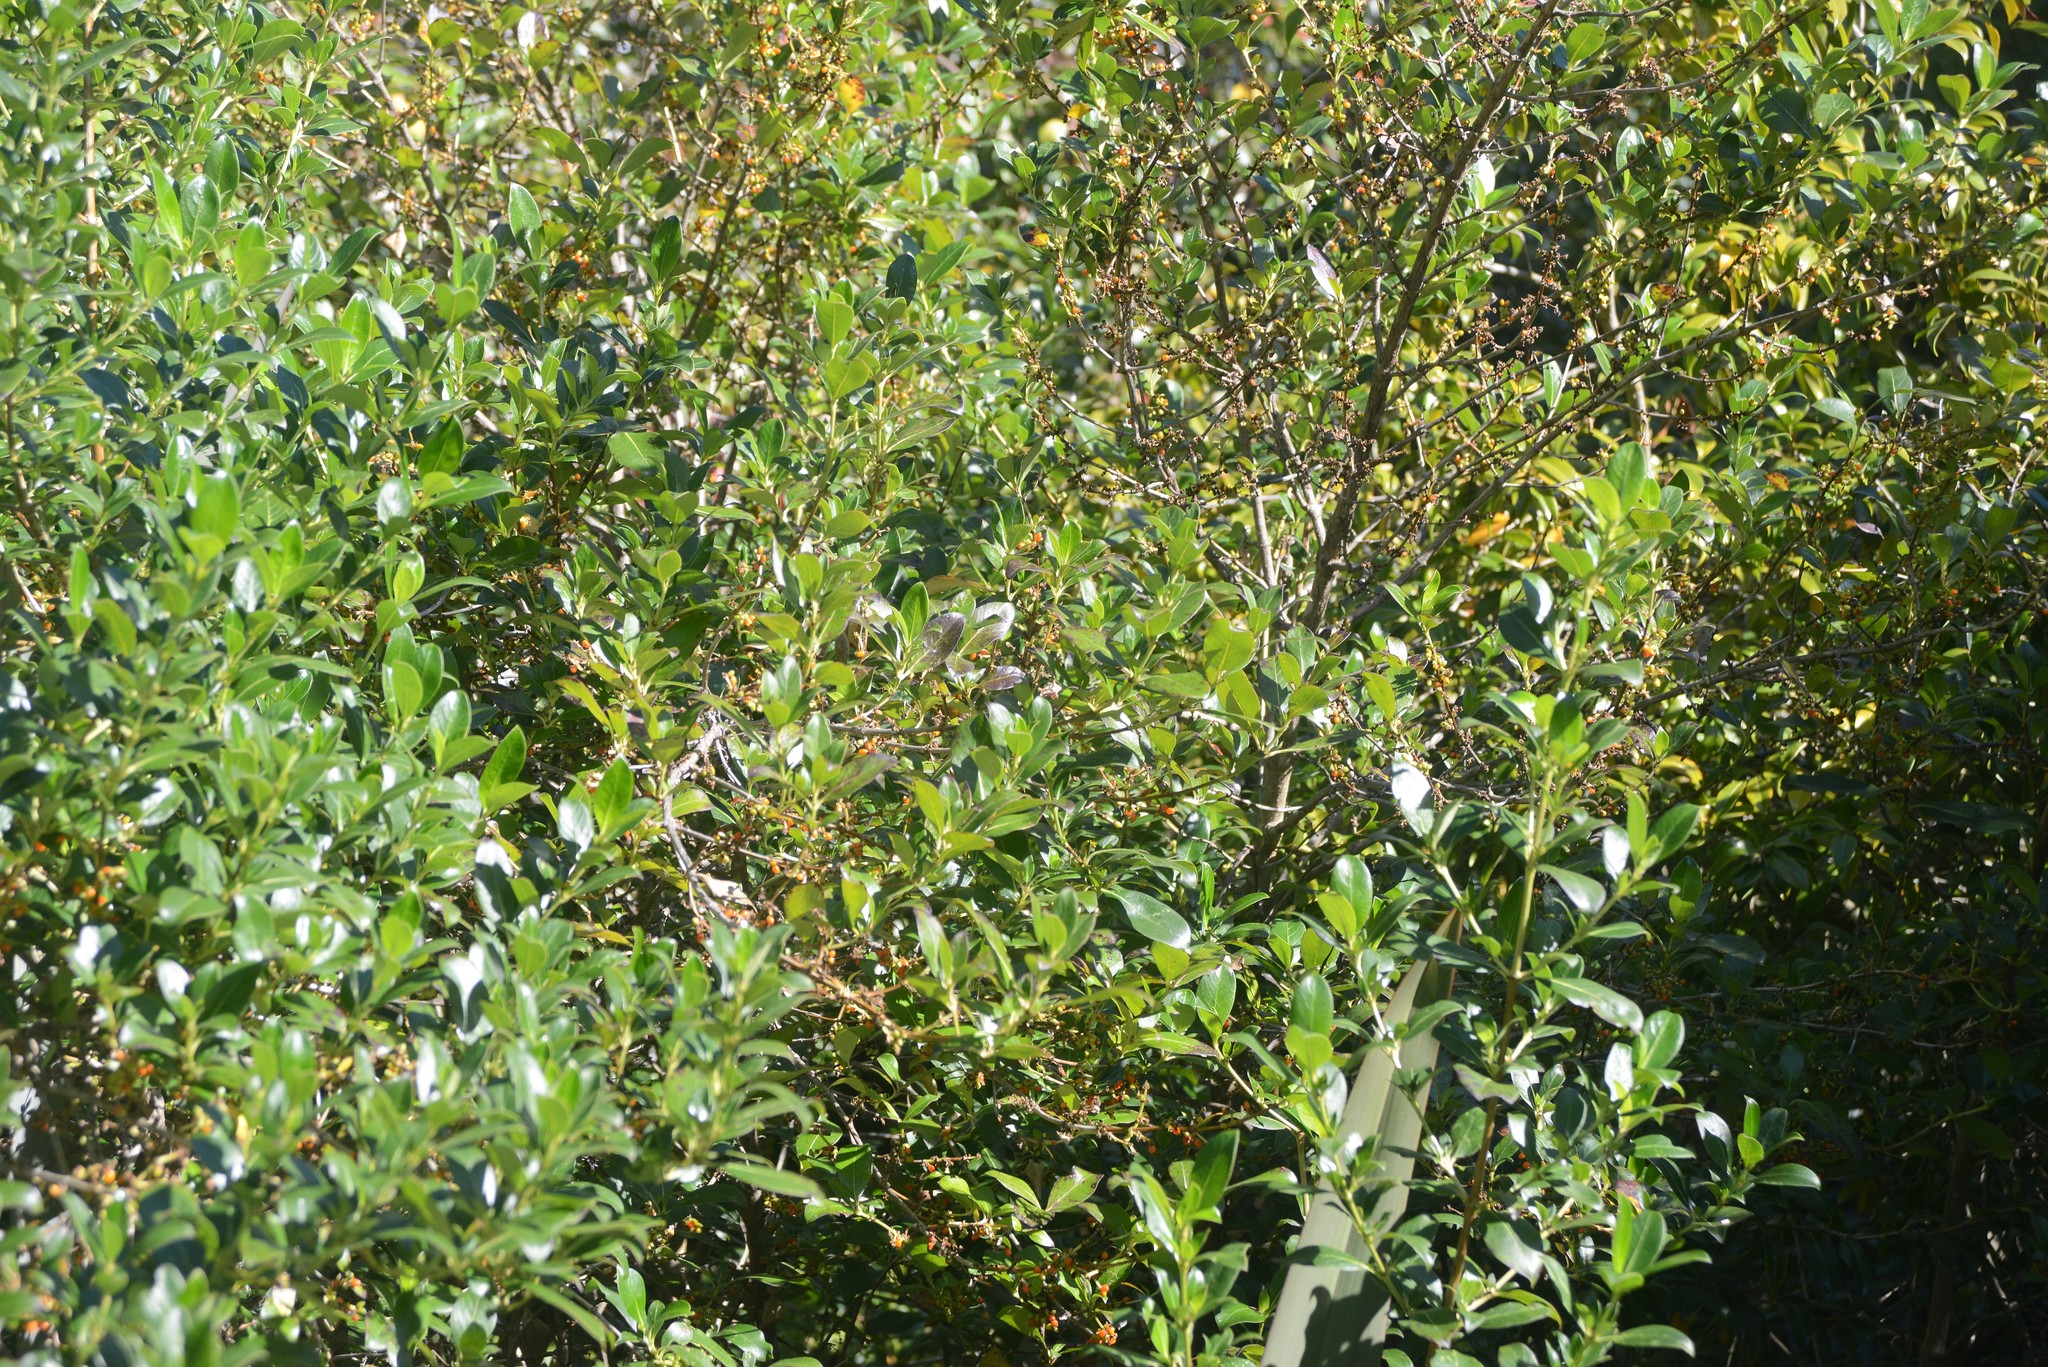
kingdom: Plantae
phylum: Tracheophyta
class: Magnoliopsida
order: Gentianales
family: Rubiaceae
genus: Coprosma
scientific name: Coprosma robusta
